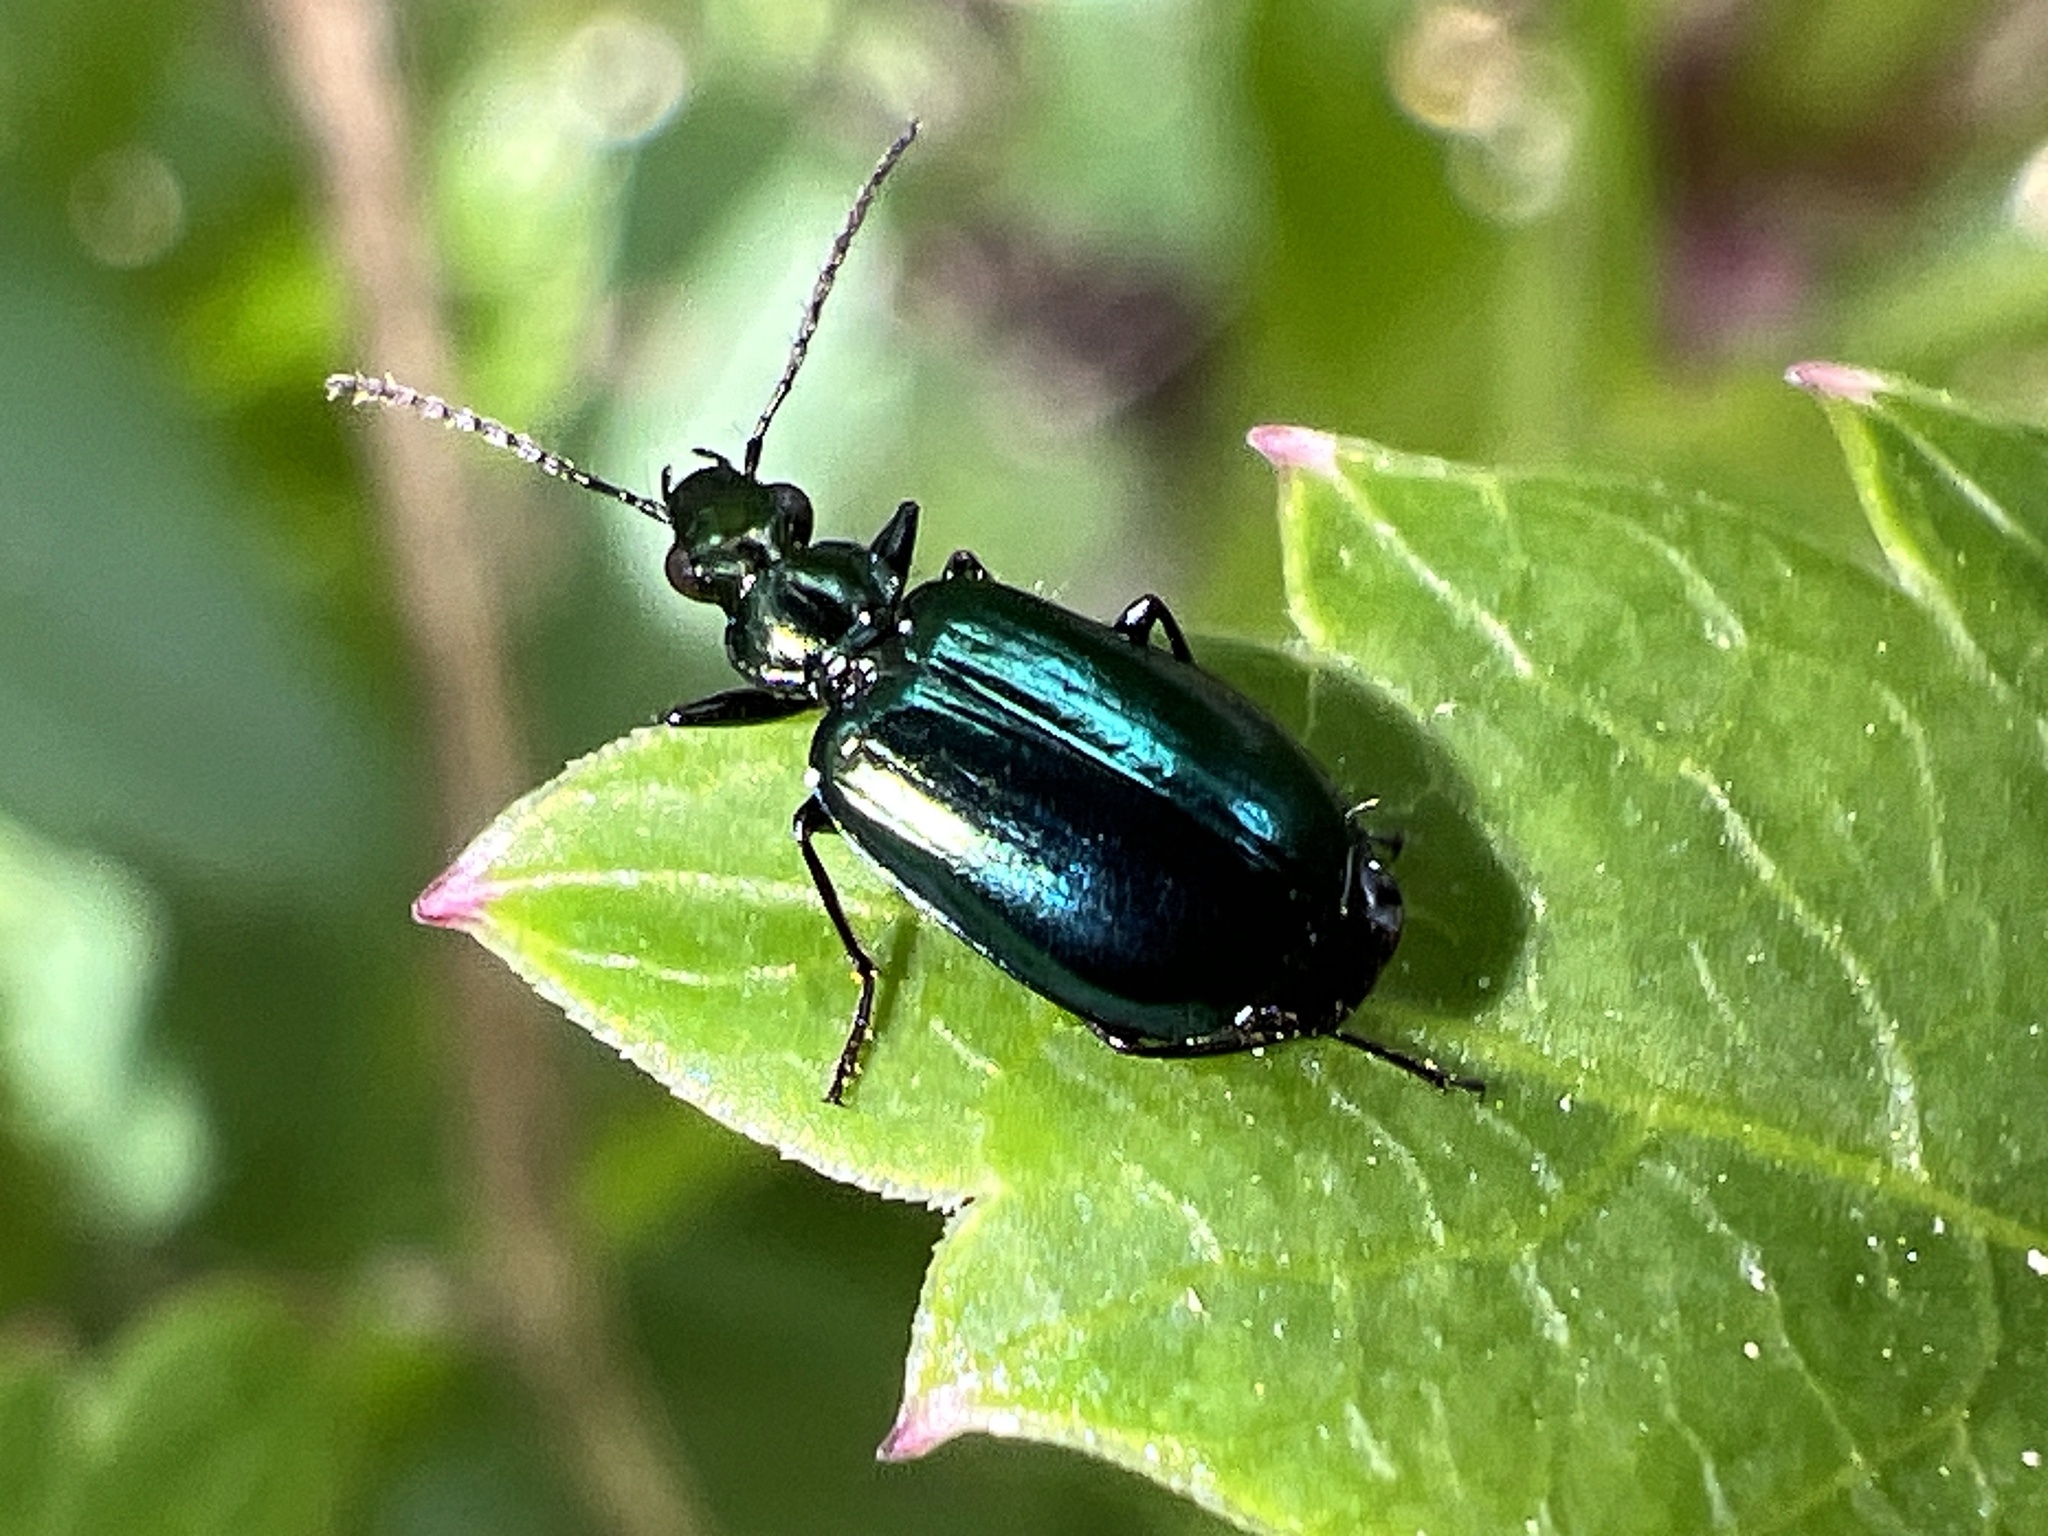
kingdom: Animalia
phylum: Arthropoda
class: Insecta
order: Coleoptera
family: Carabidae
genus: Lebia
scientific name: Lebia viridis
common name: Flower lebia beetle
